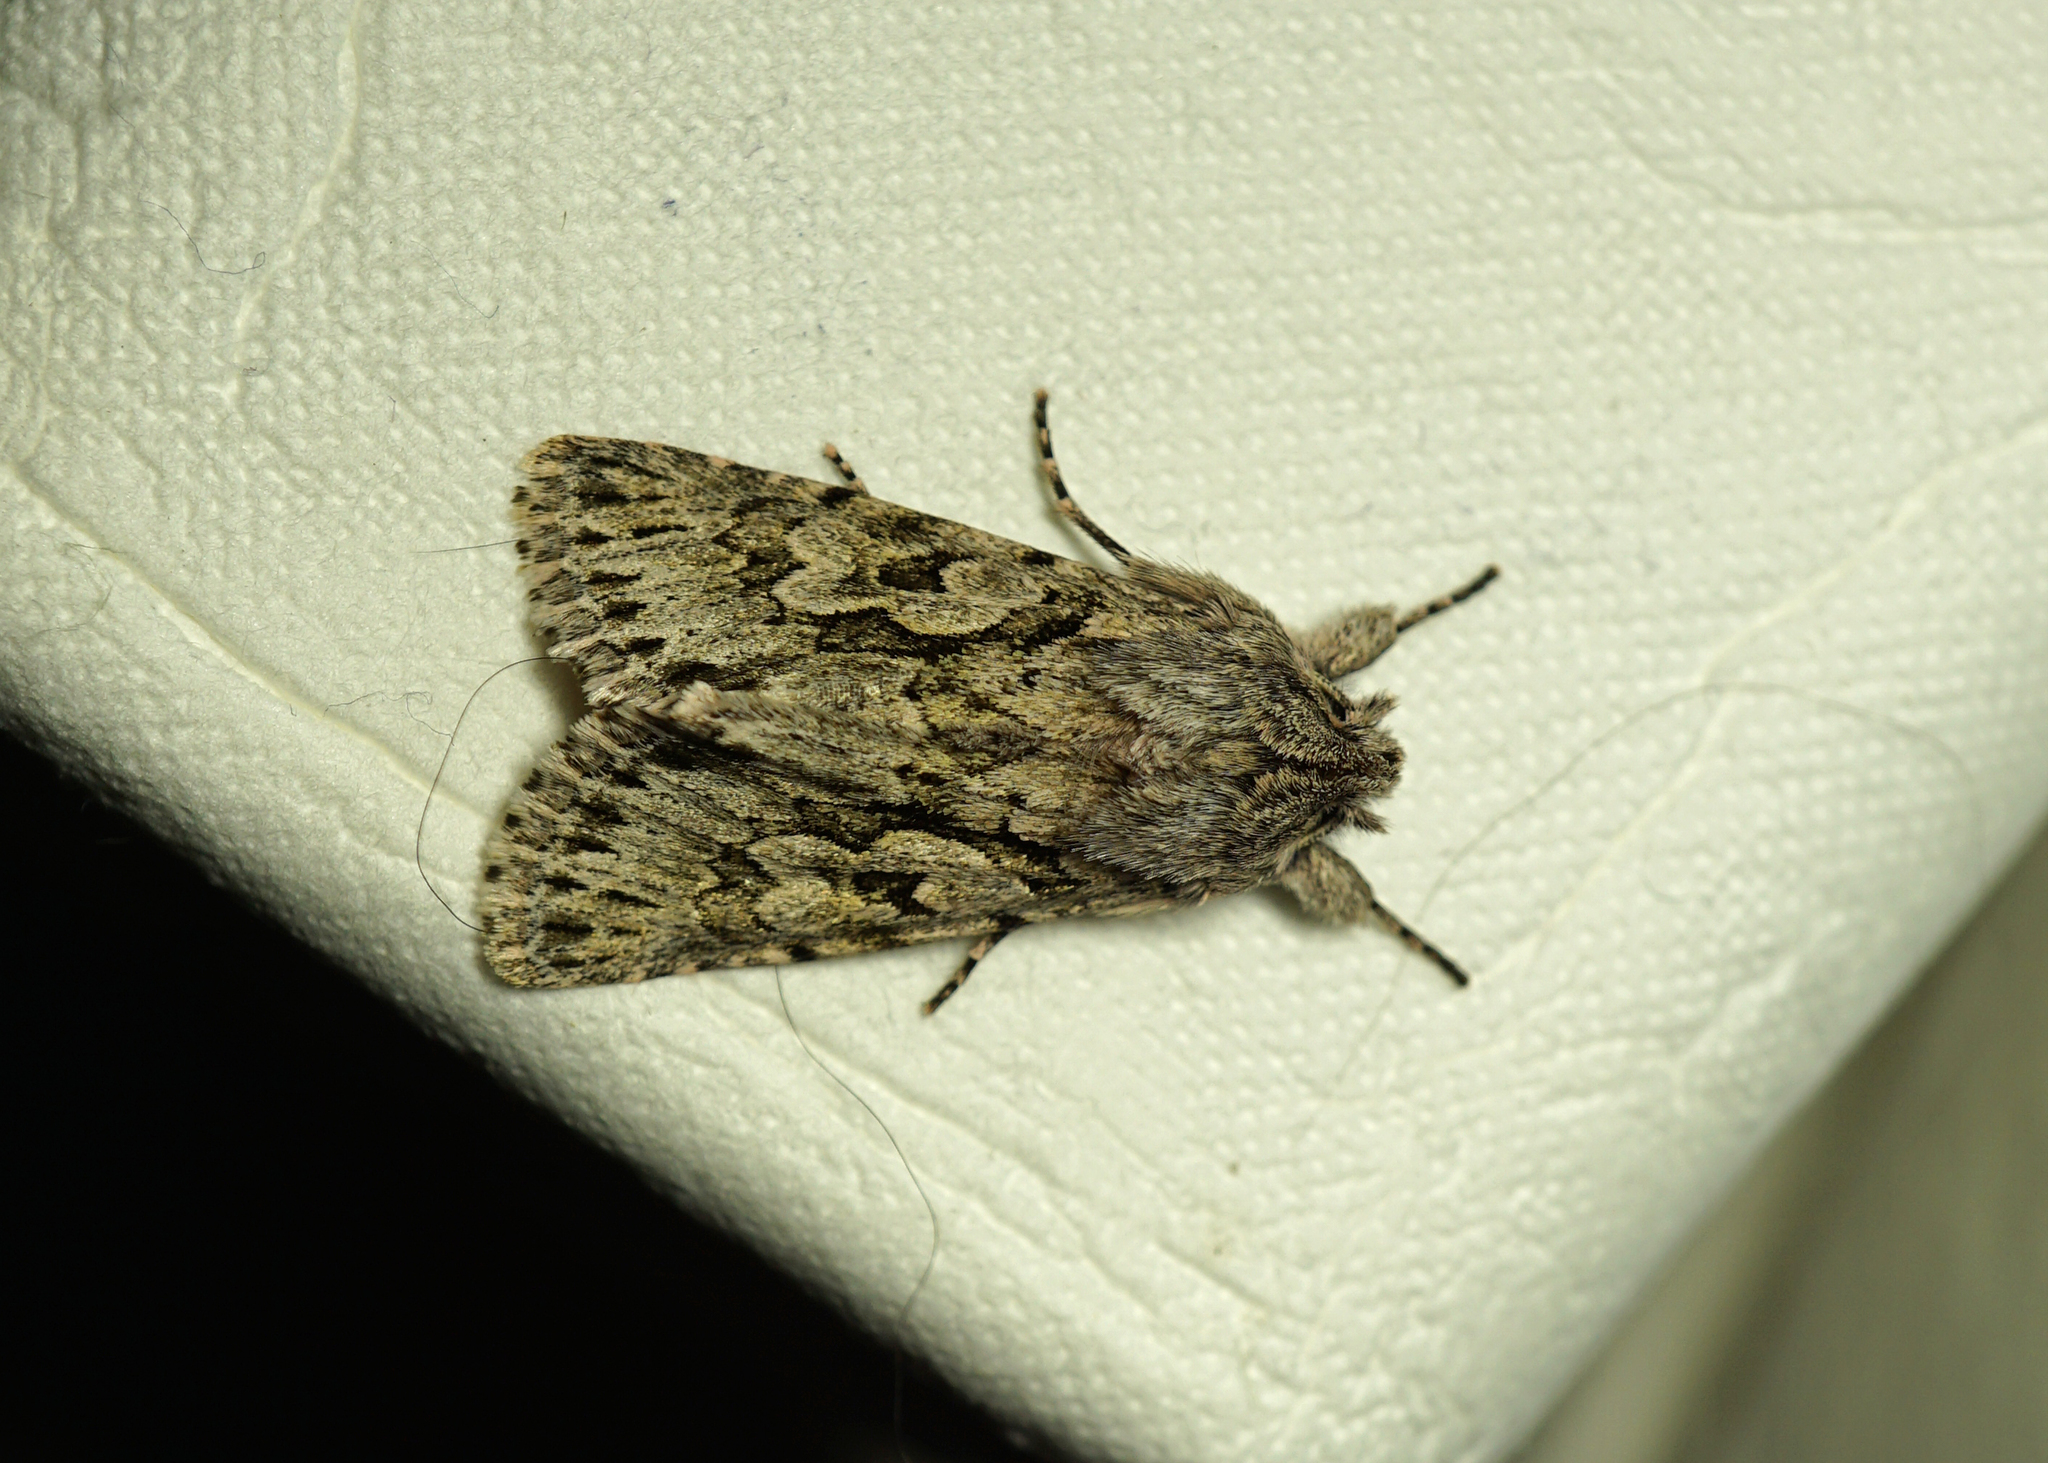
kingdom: Animalia
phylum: Arthropoda
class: Insecta
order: Lepidoptera
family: Noctuidae
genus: Xylocampa
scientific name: Xylocampa areola
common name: Early grey
